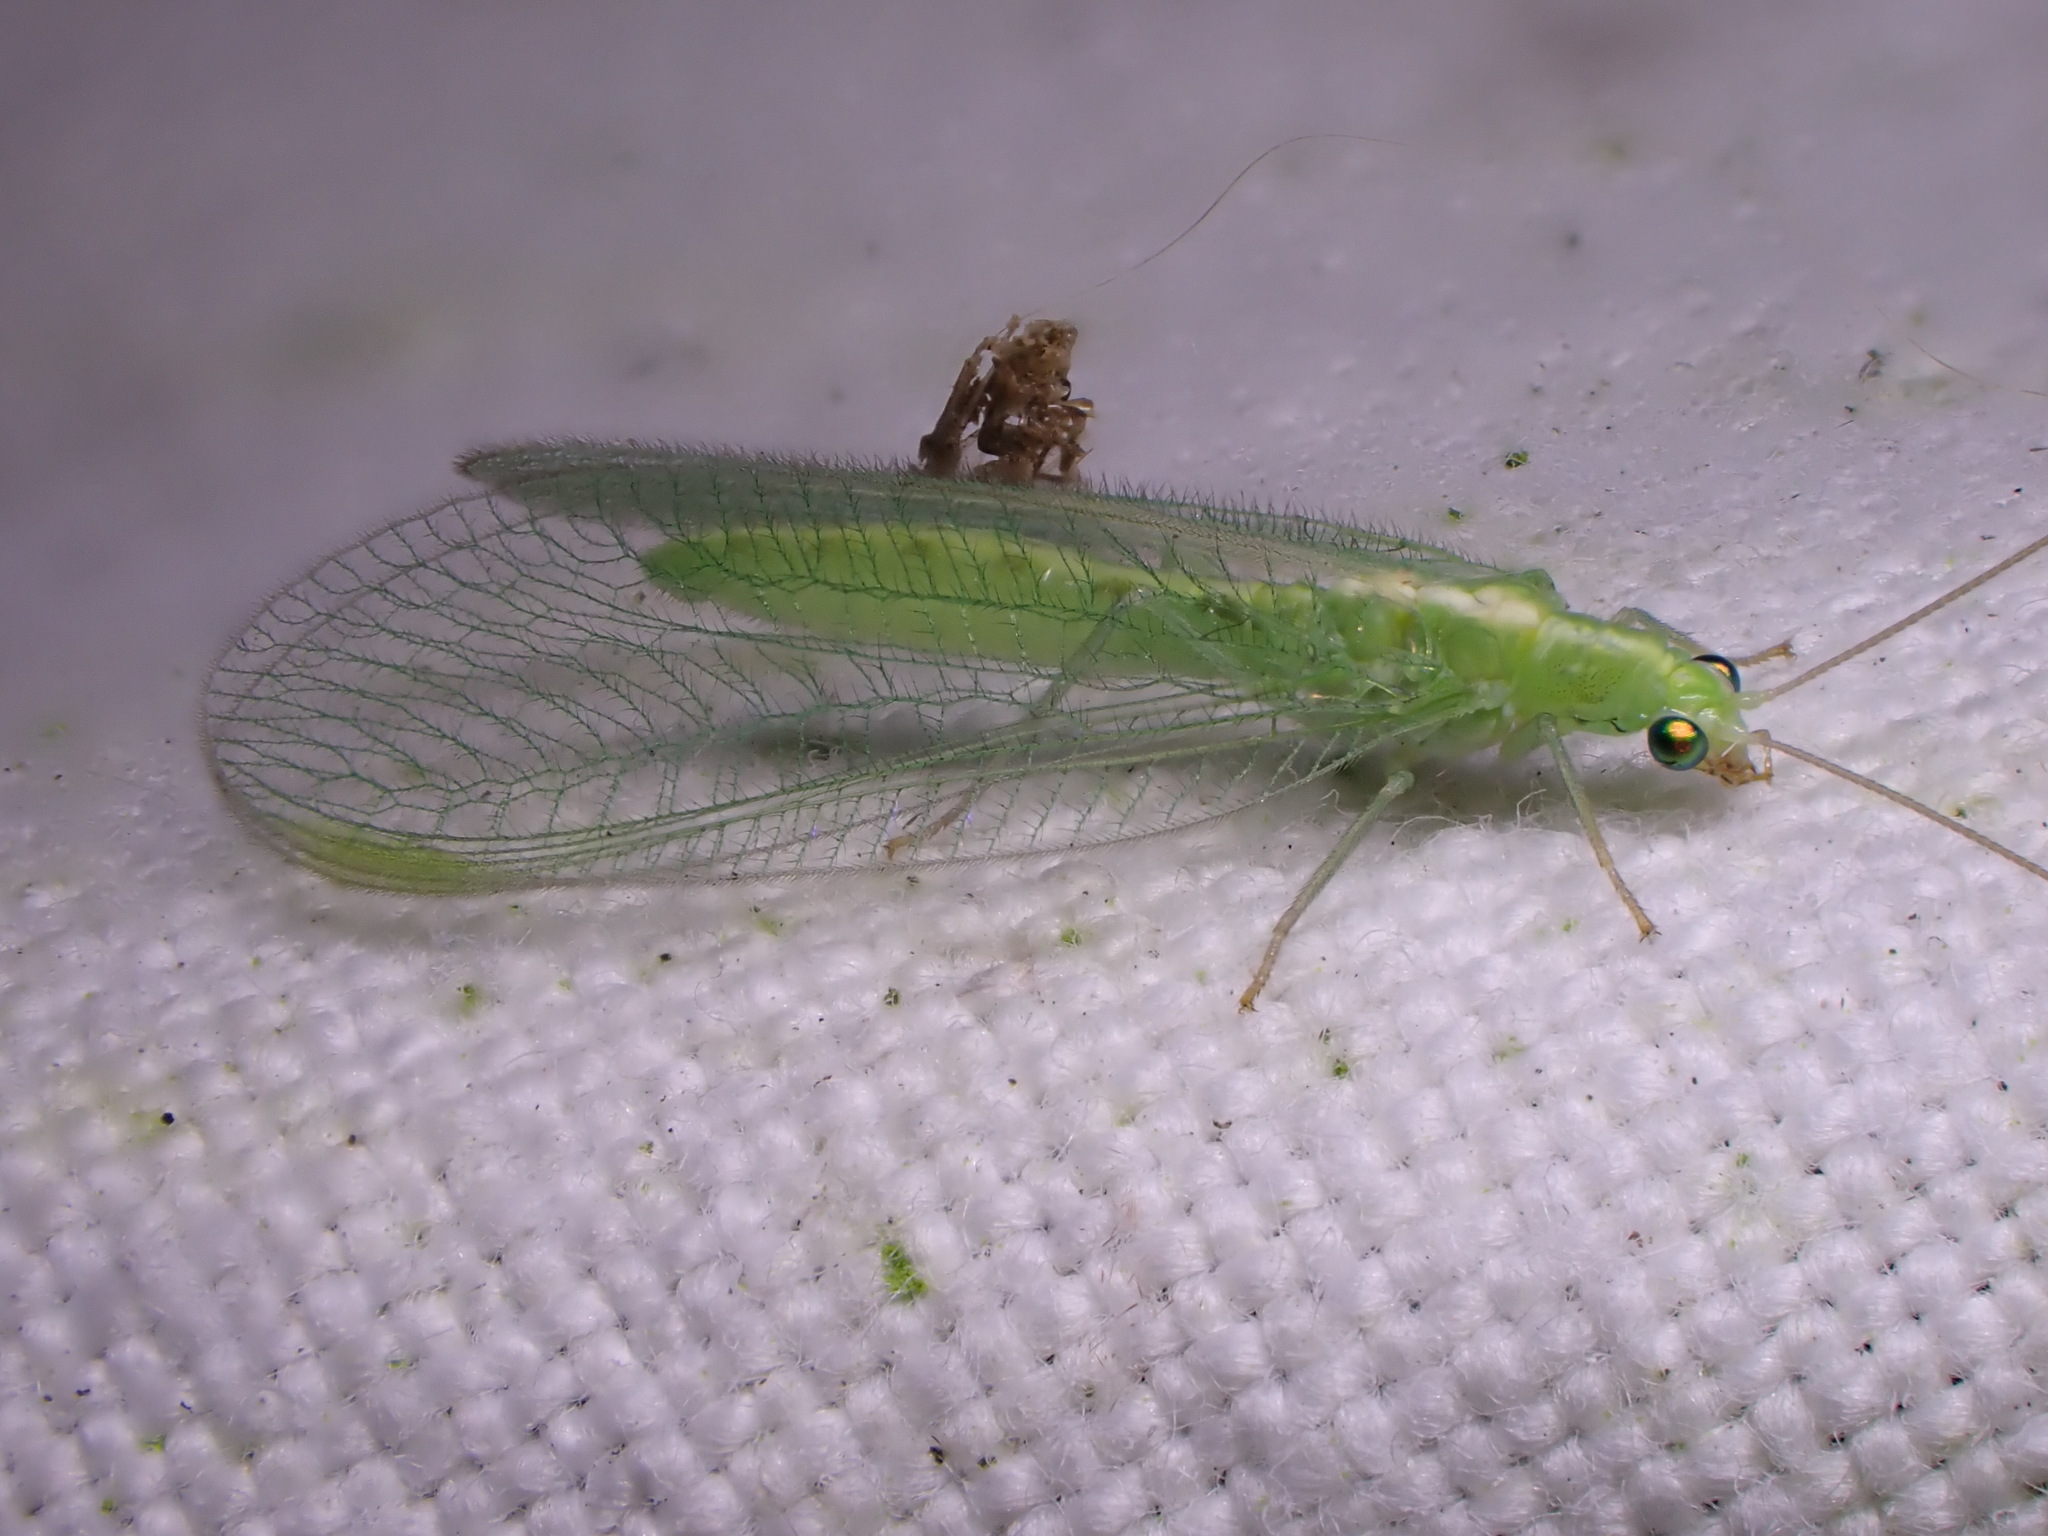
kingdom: Animalia
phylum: Arthropoda
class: Insecta
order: Neuroptera
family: Chrysopidae
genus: Chrysoperla
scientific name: Chrysoperla
